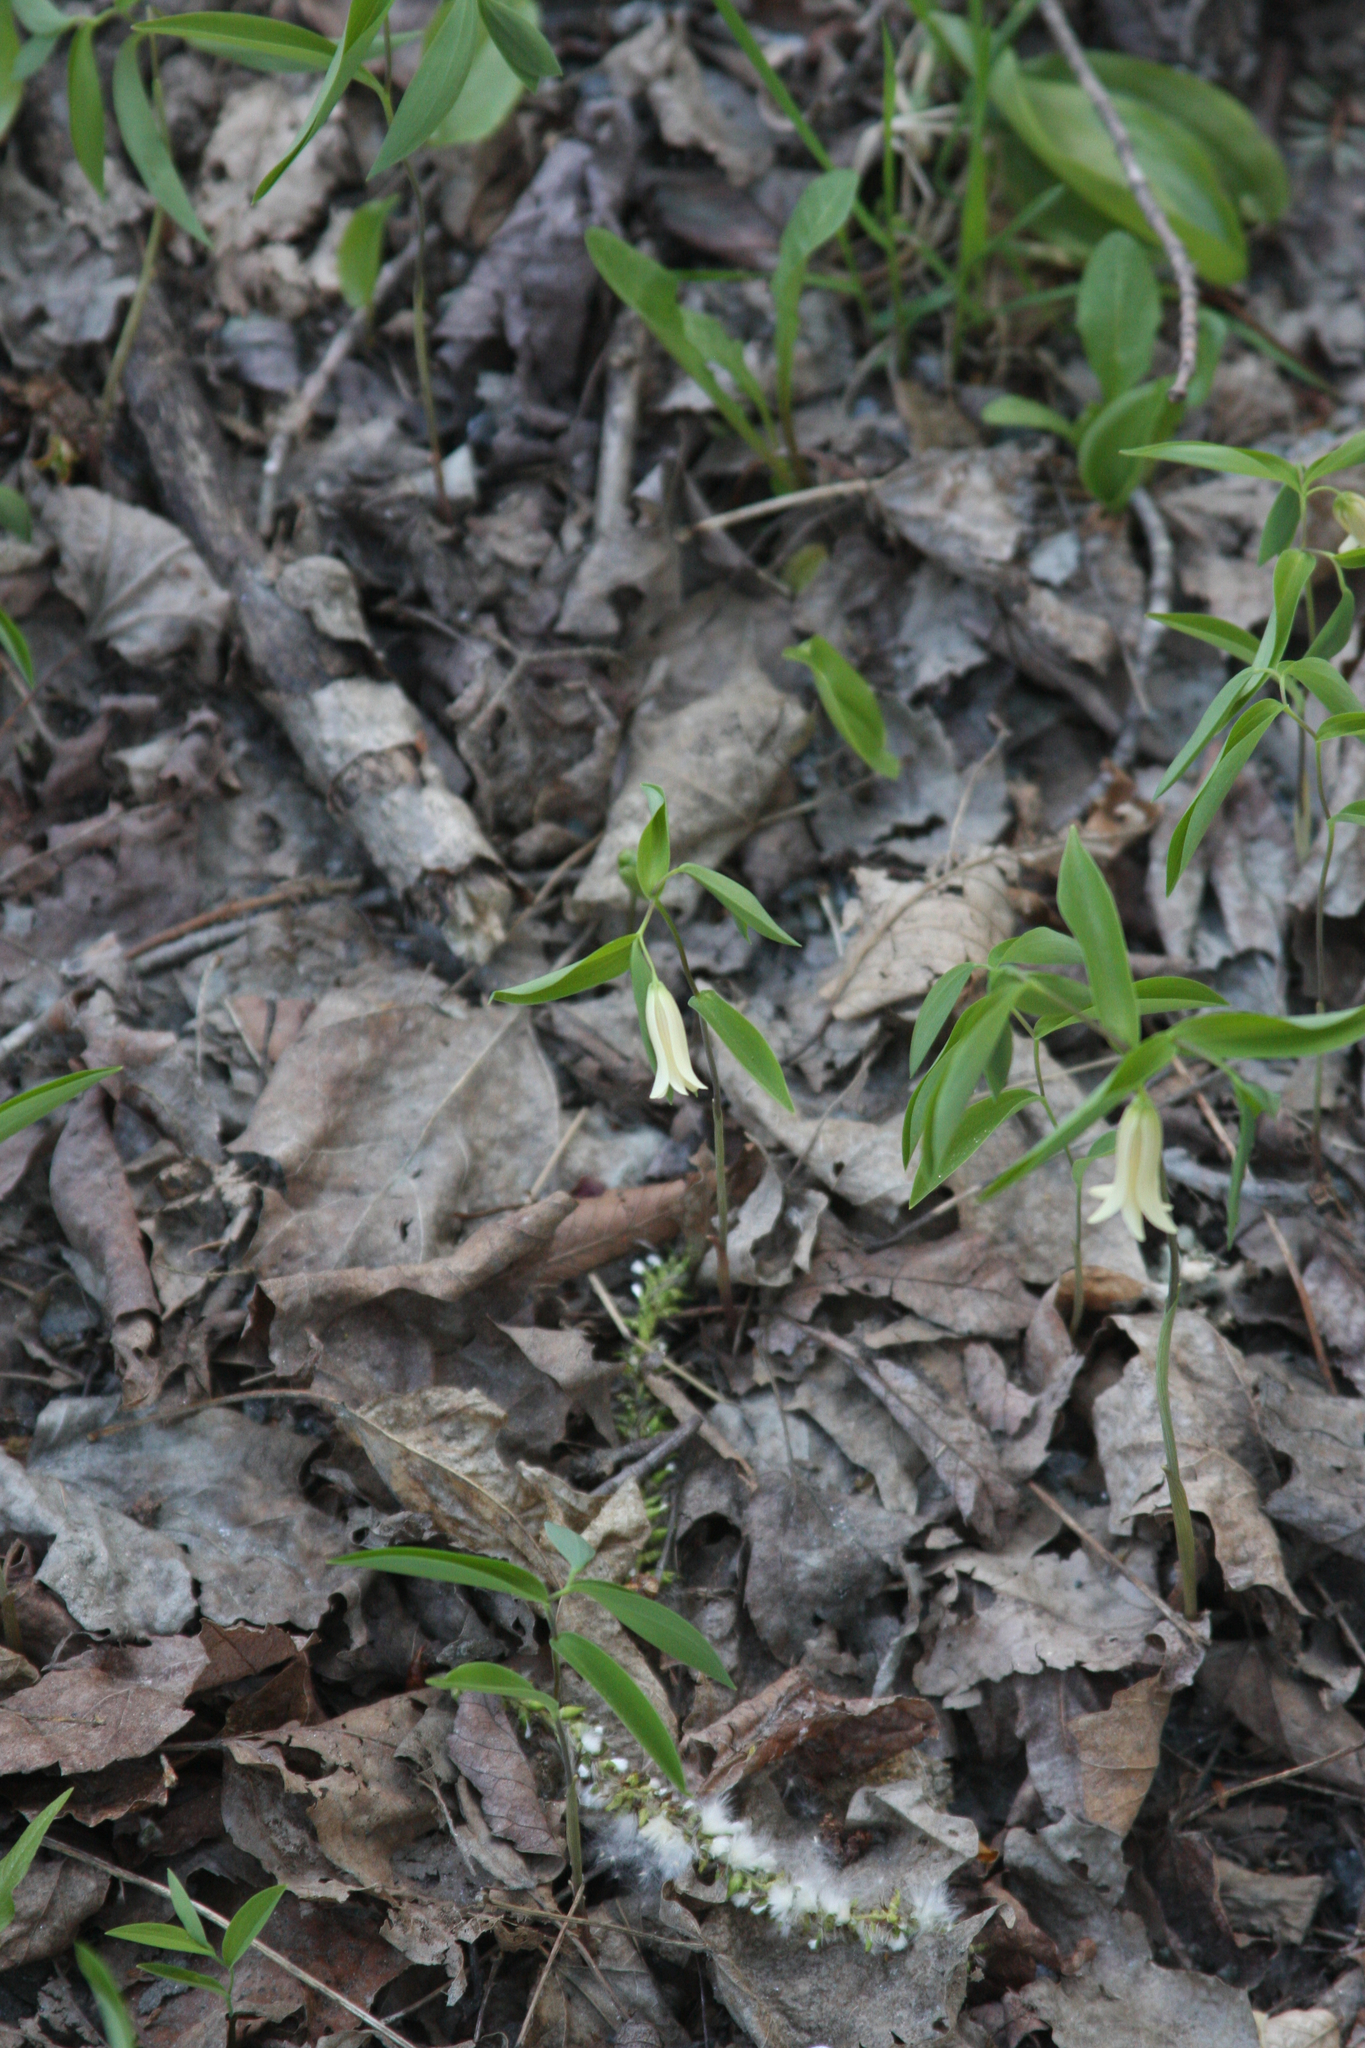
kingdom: Plantae
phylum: Tracheophyta
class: Liliopsida
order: Liliales
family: Colchicaceae
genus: Uvularia
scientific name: Uvularia sessilifolia
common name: Straw-lily
